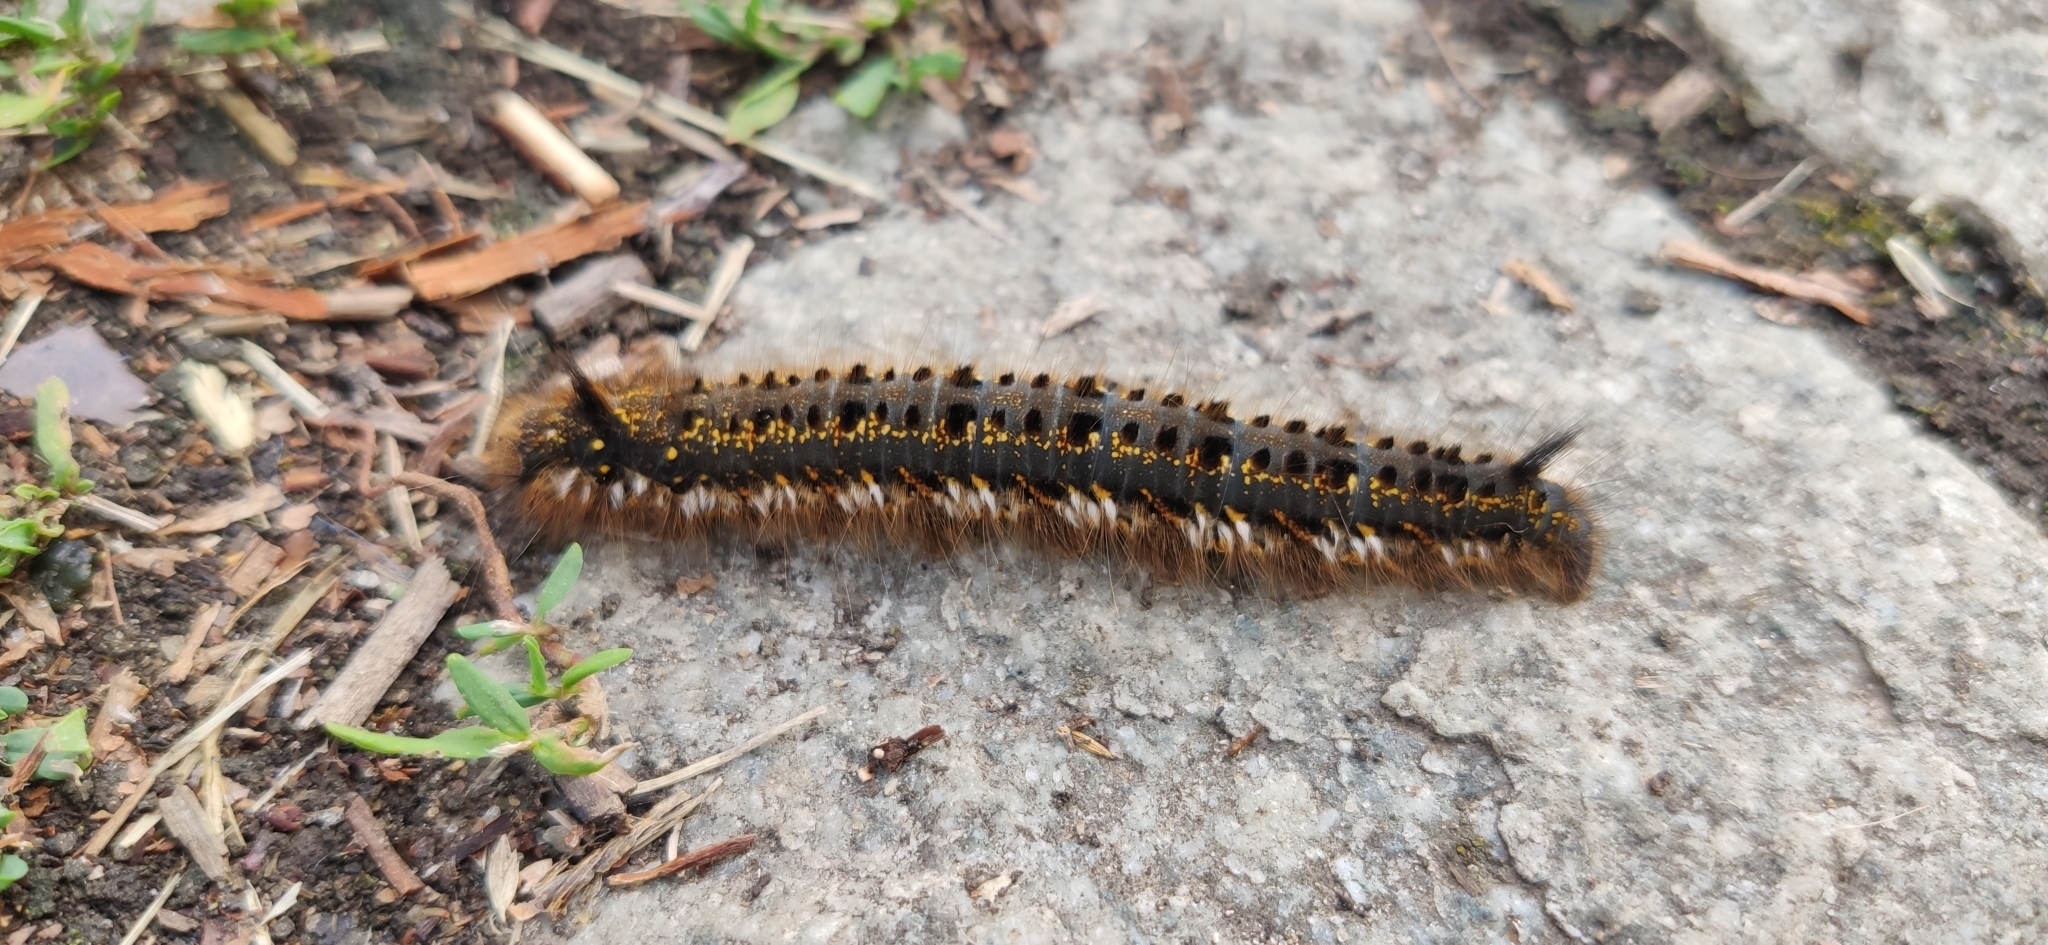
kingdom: Animalia
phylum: Arthropoda
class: Insecta
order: Lepidoptera
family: Lasiocampidae
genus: Euthrix
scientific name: Euthrix potatoria
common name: Drinker
